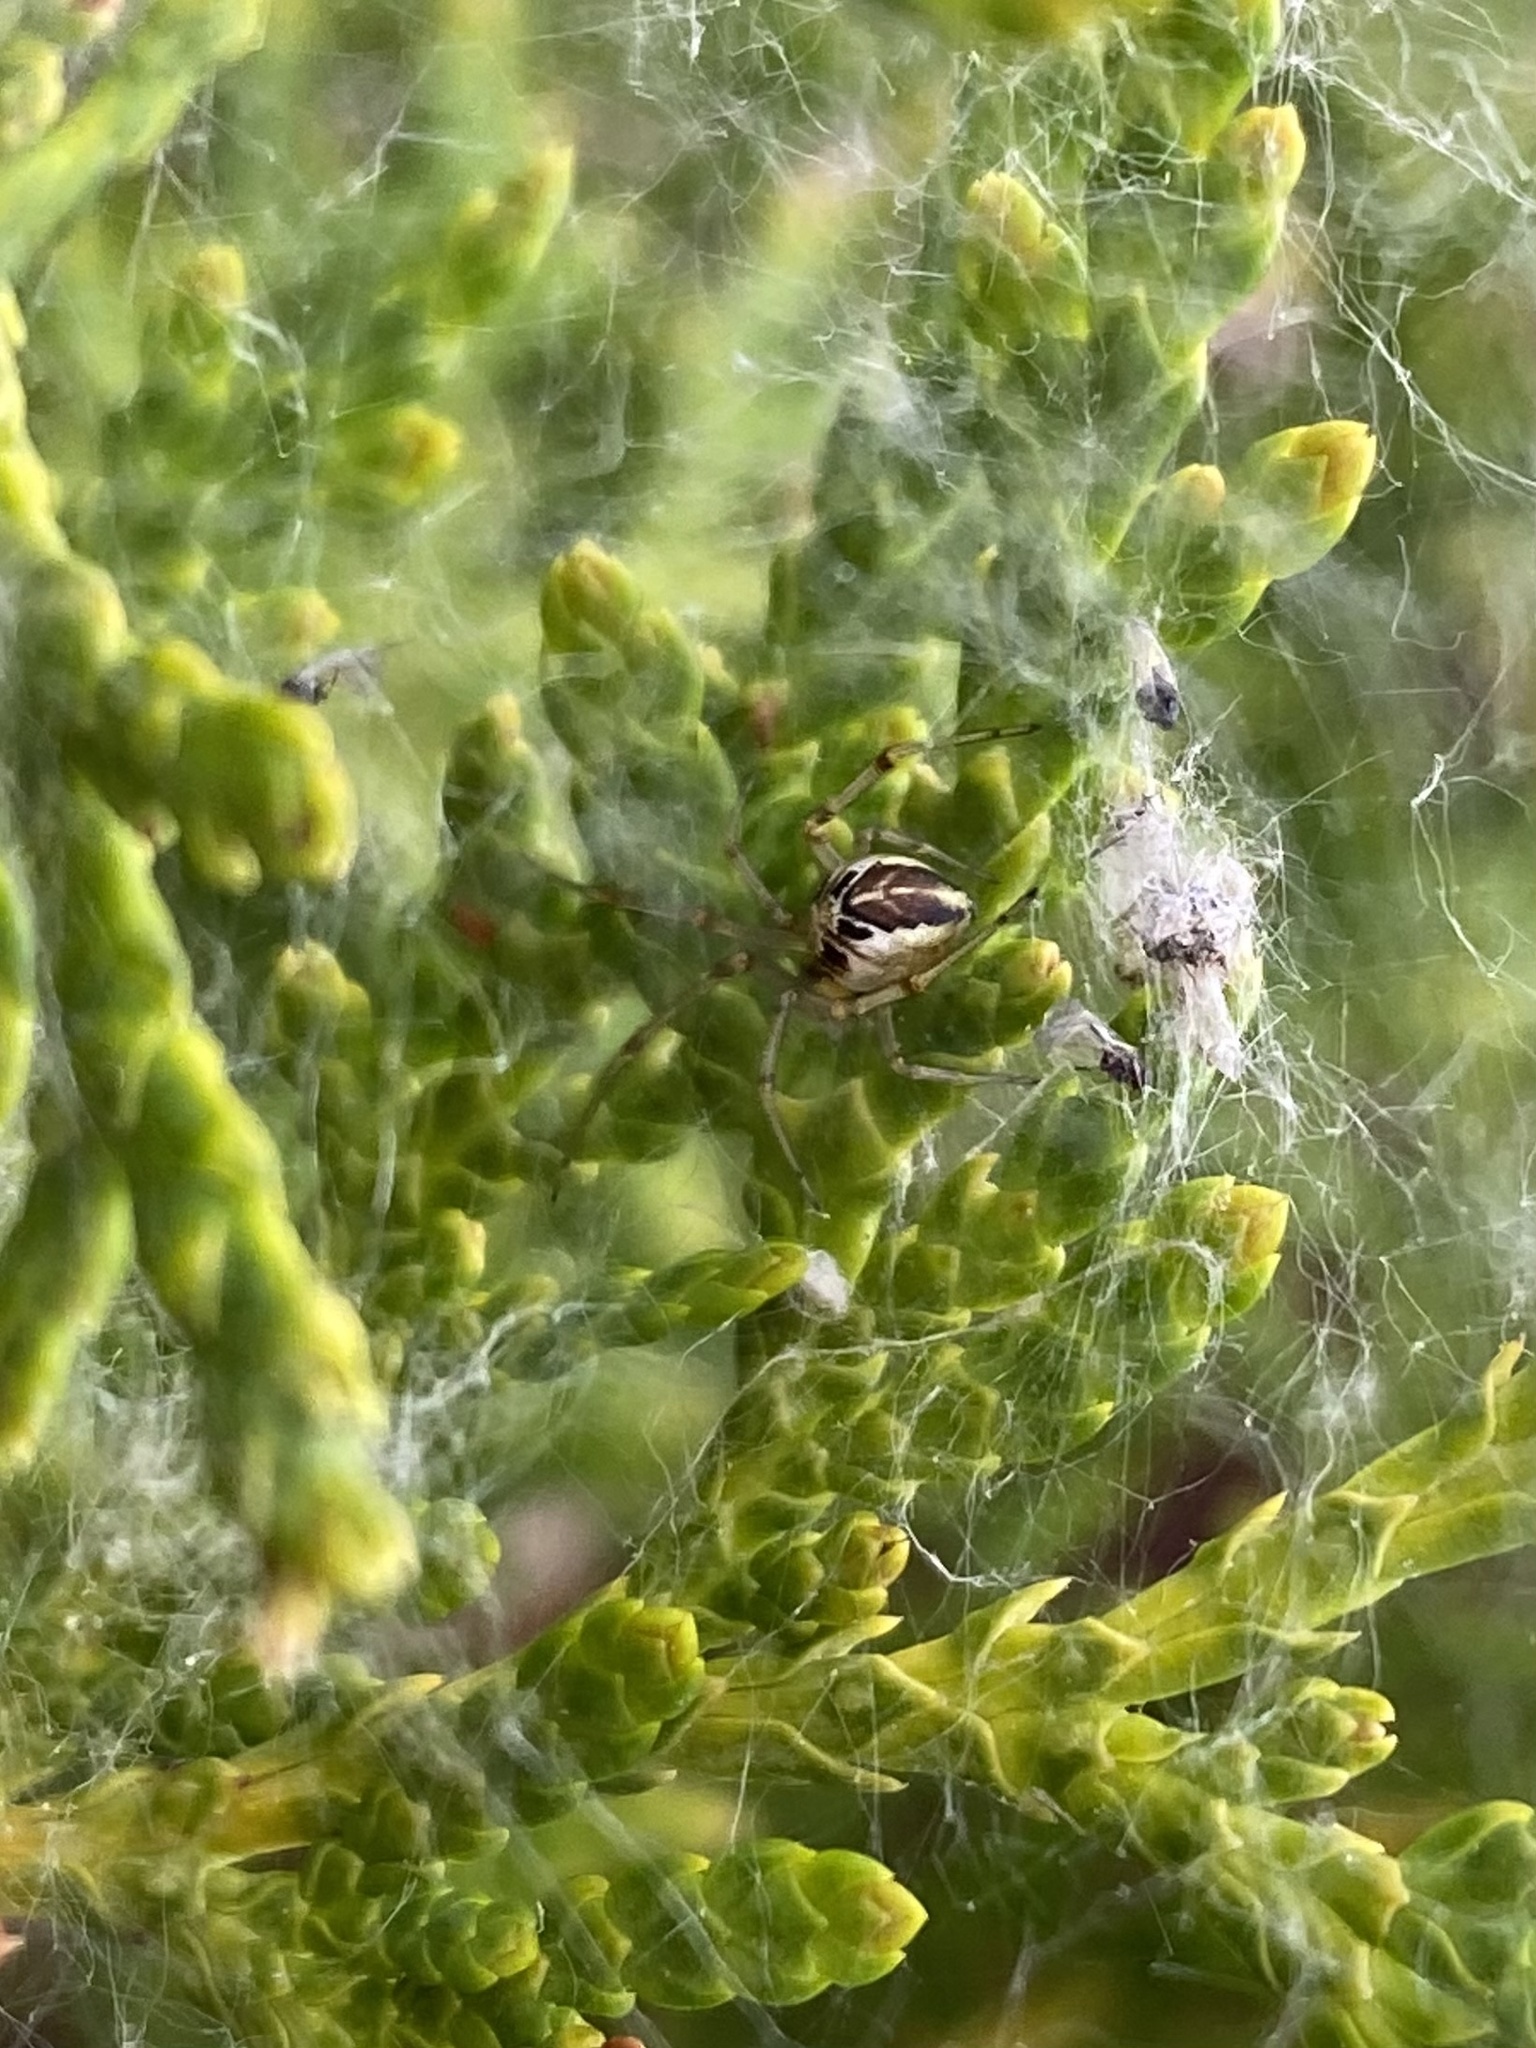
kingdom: Animalia
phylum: Arthropoda
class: Arachnida
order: Araneae
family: Theridiidae
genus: Phylloneta
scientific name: Phylloneta
